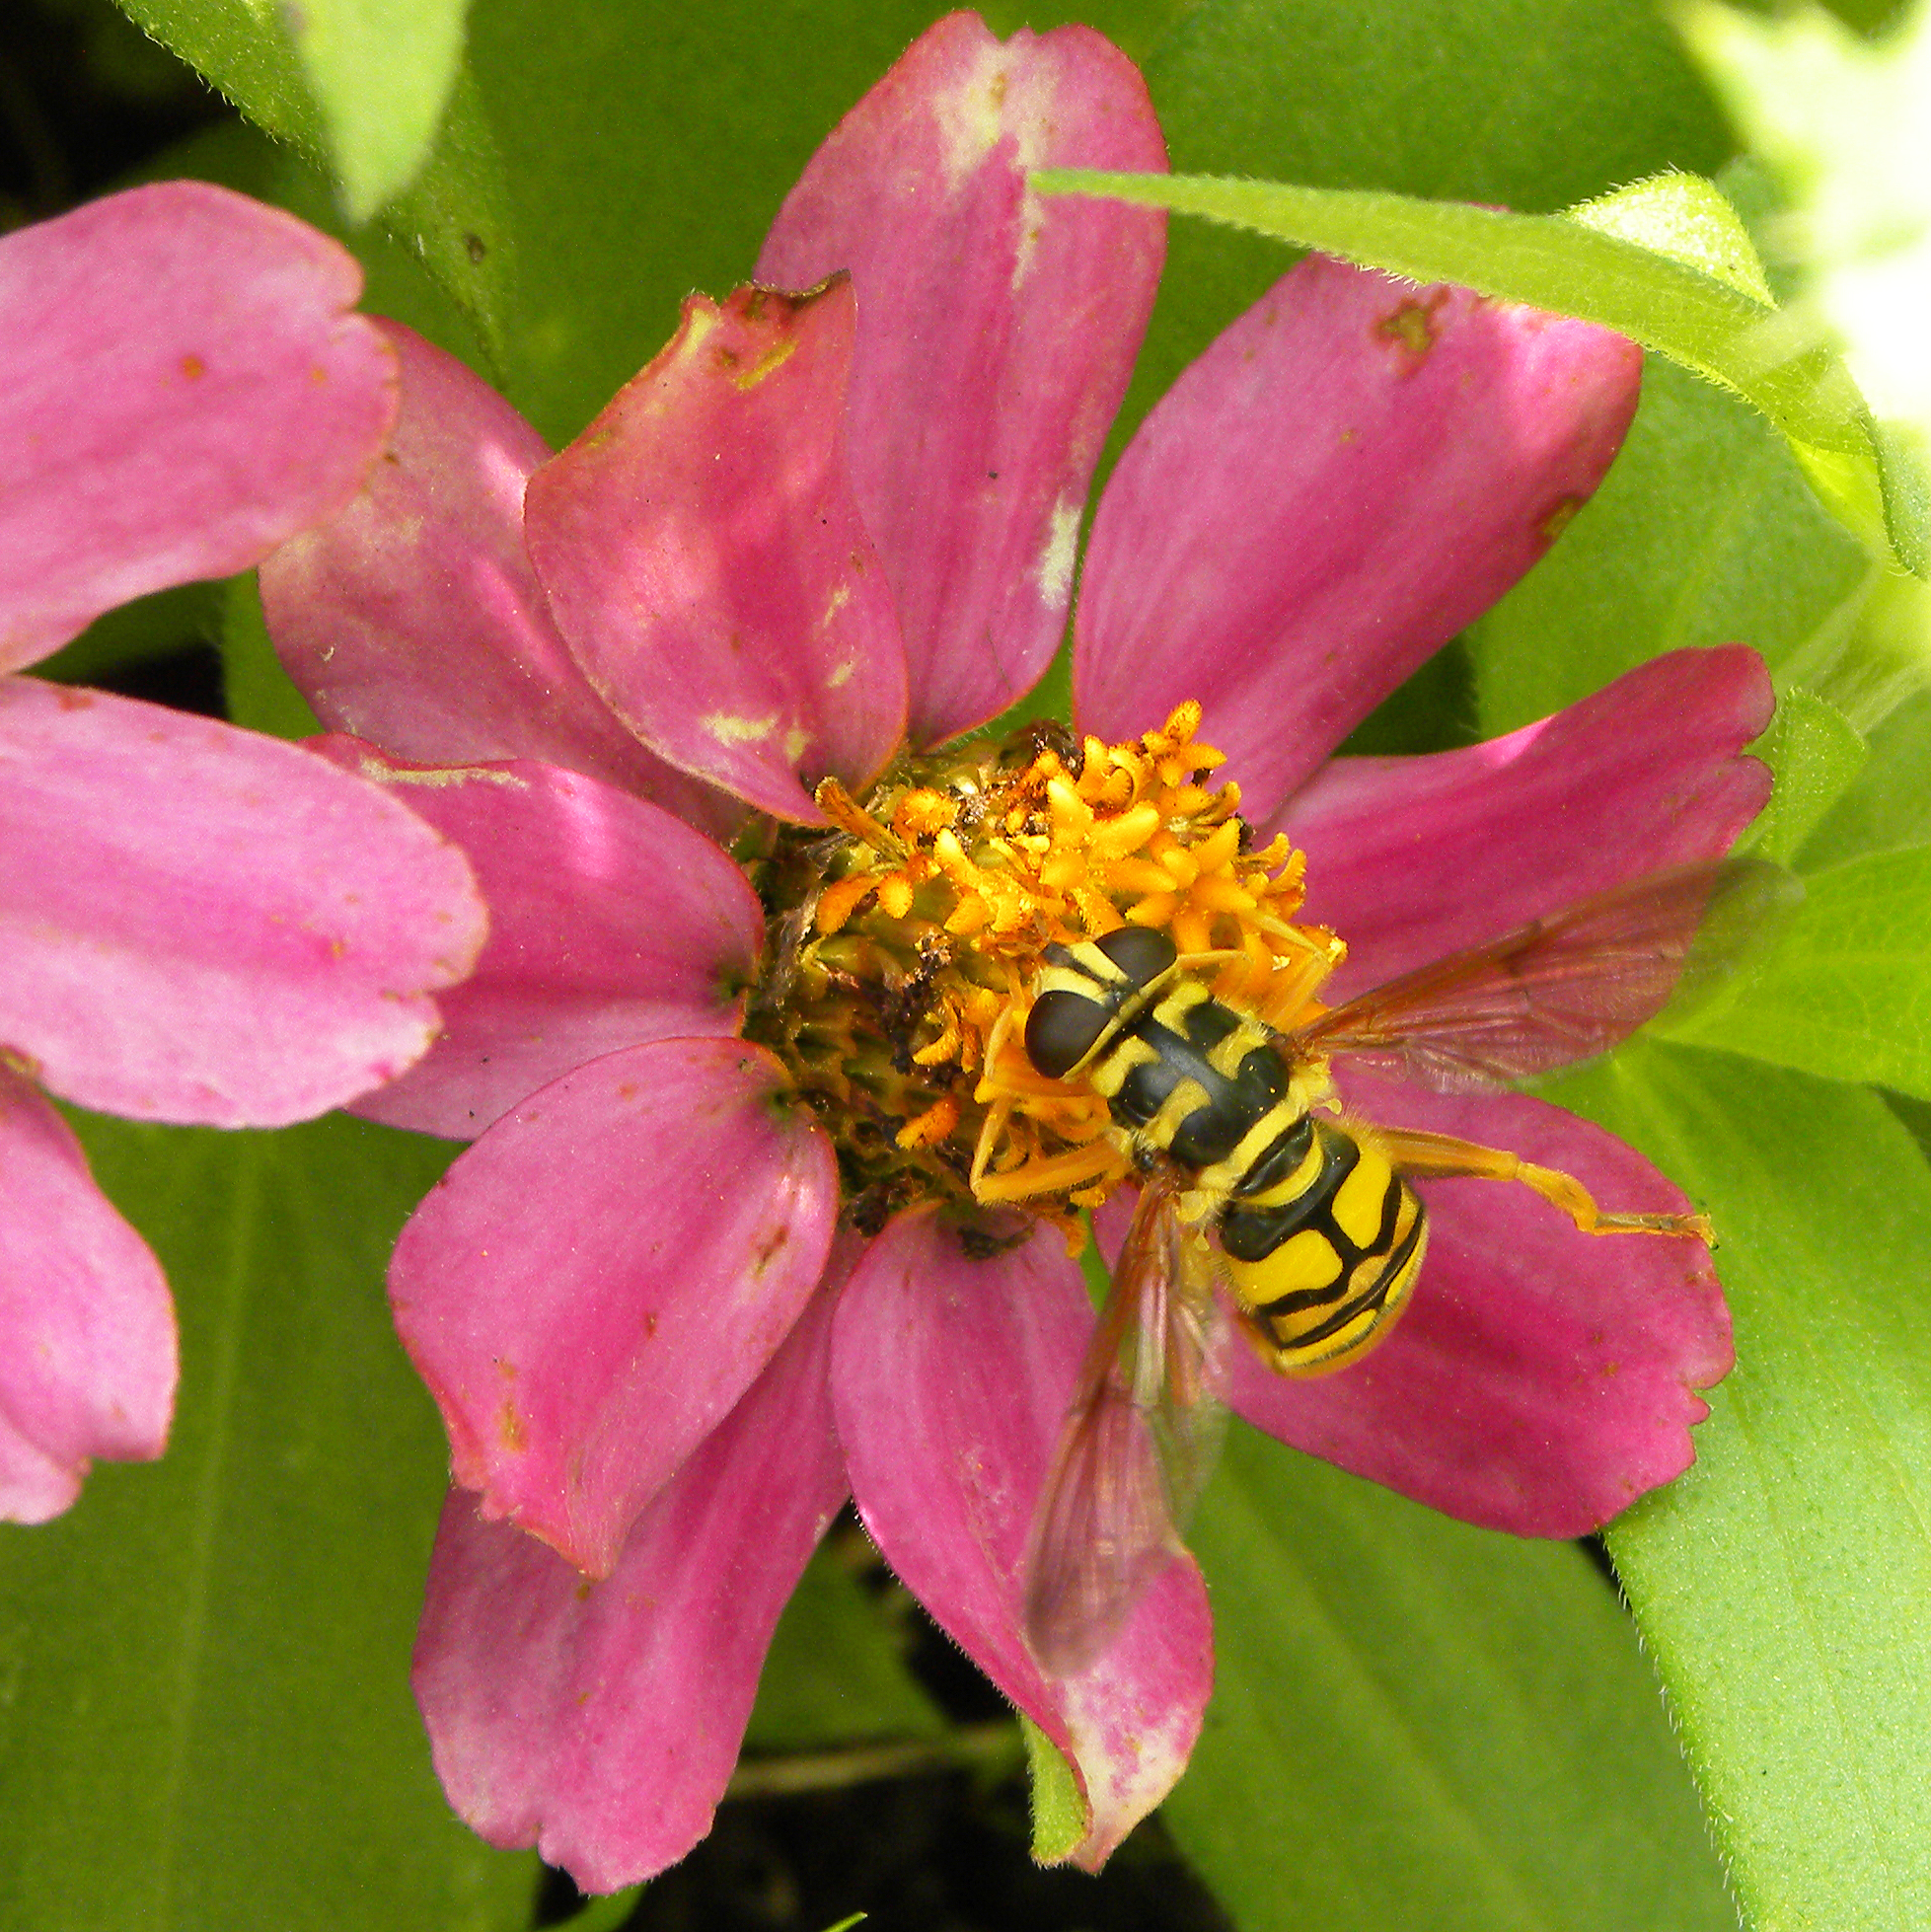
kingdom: Animalia
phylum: Arthropoda
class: Insecta
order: Diptera
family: Syrphidae
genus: Milesia
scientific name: Milesia virginiensis
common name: Virginia giant
